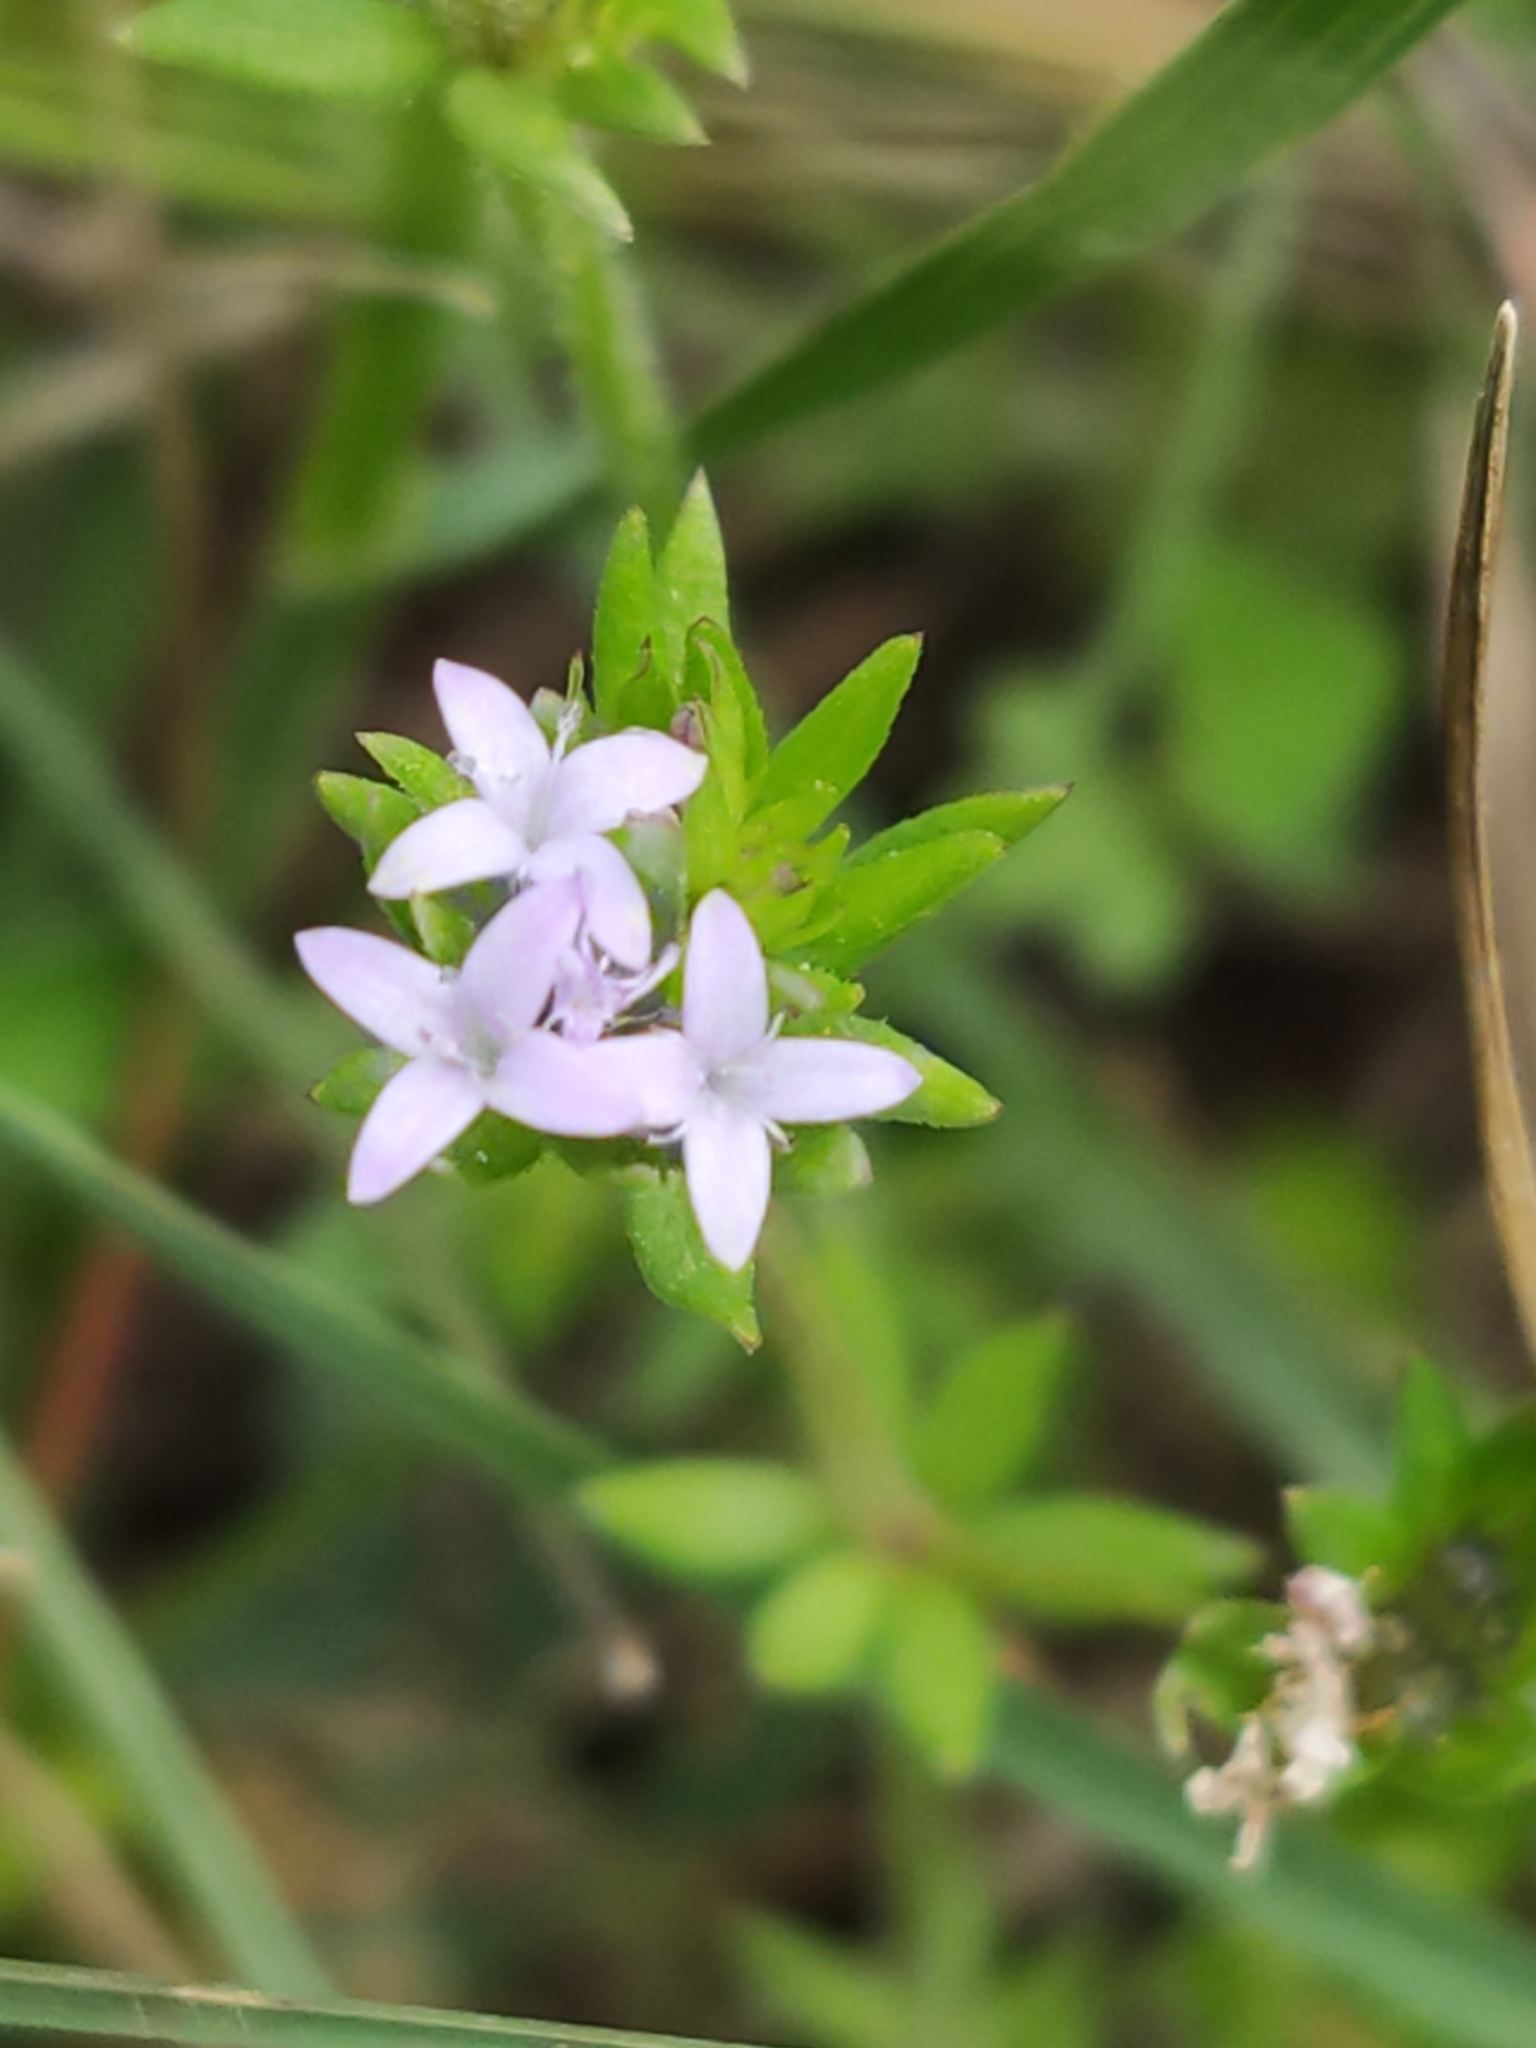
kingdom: Plantae
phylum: Tracheophyta
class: Magnoliopsida
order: Gentianales
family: Rubiaceae
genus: Sherardia
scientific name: Sherardia arvensis
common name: Field madder
